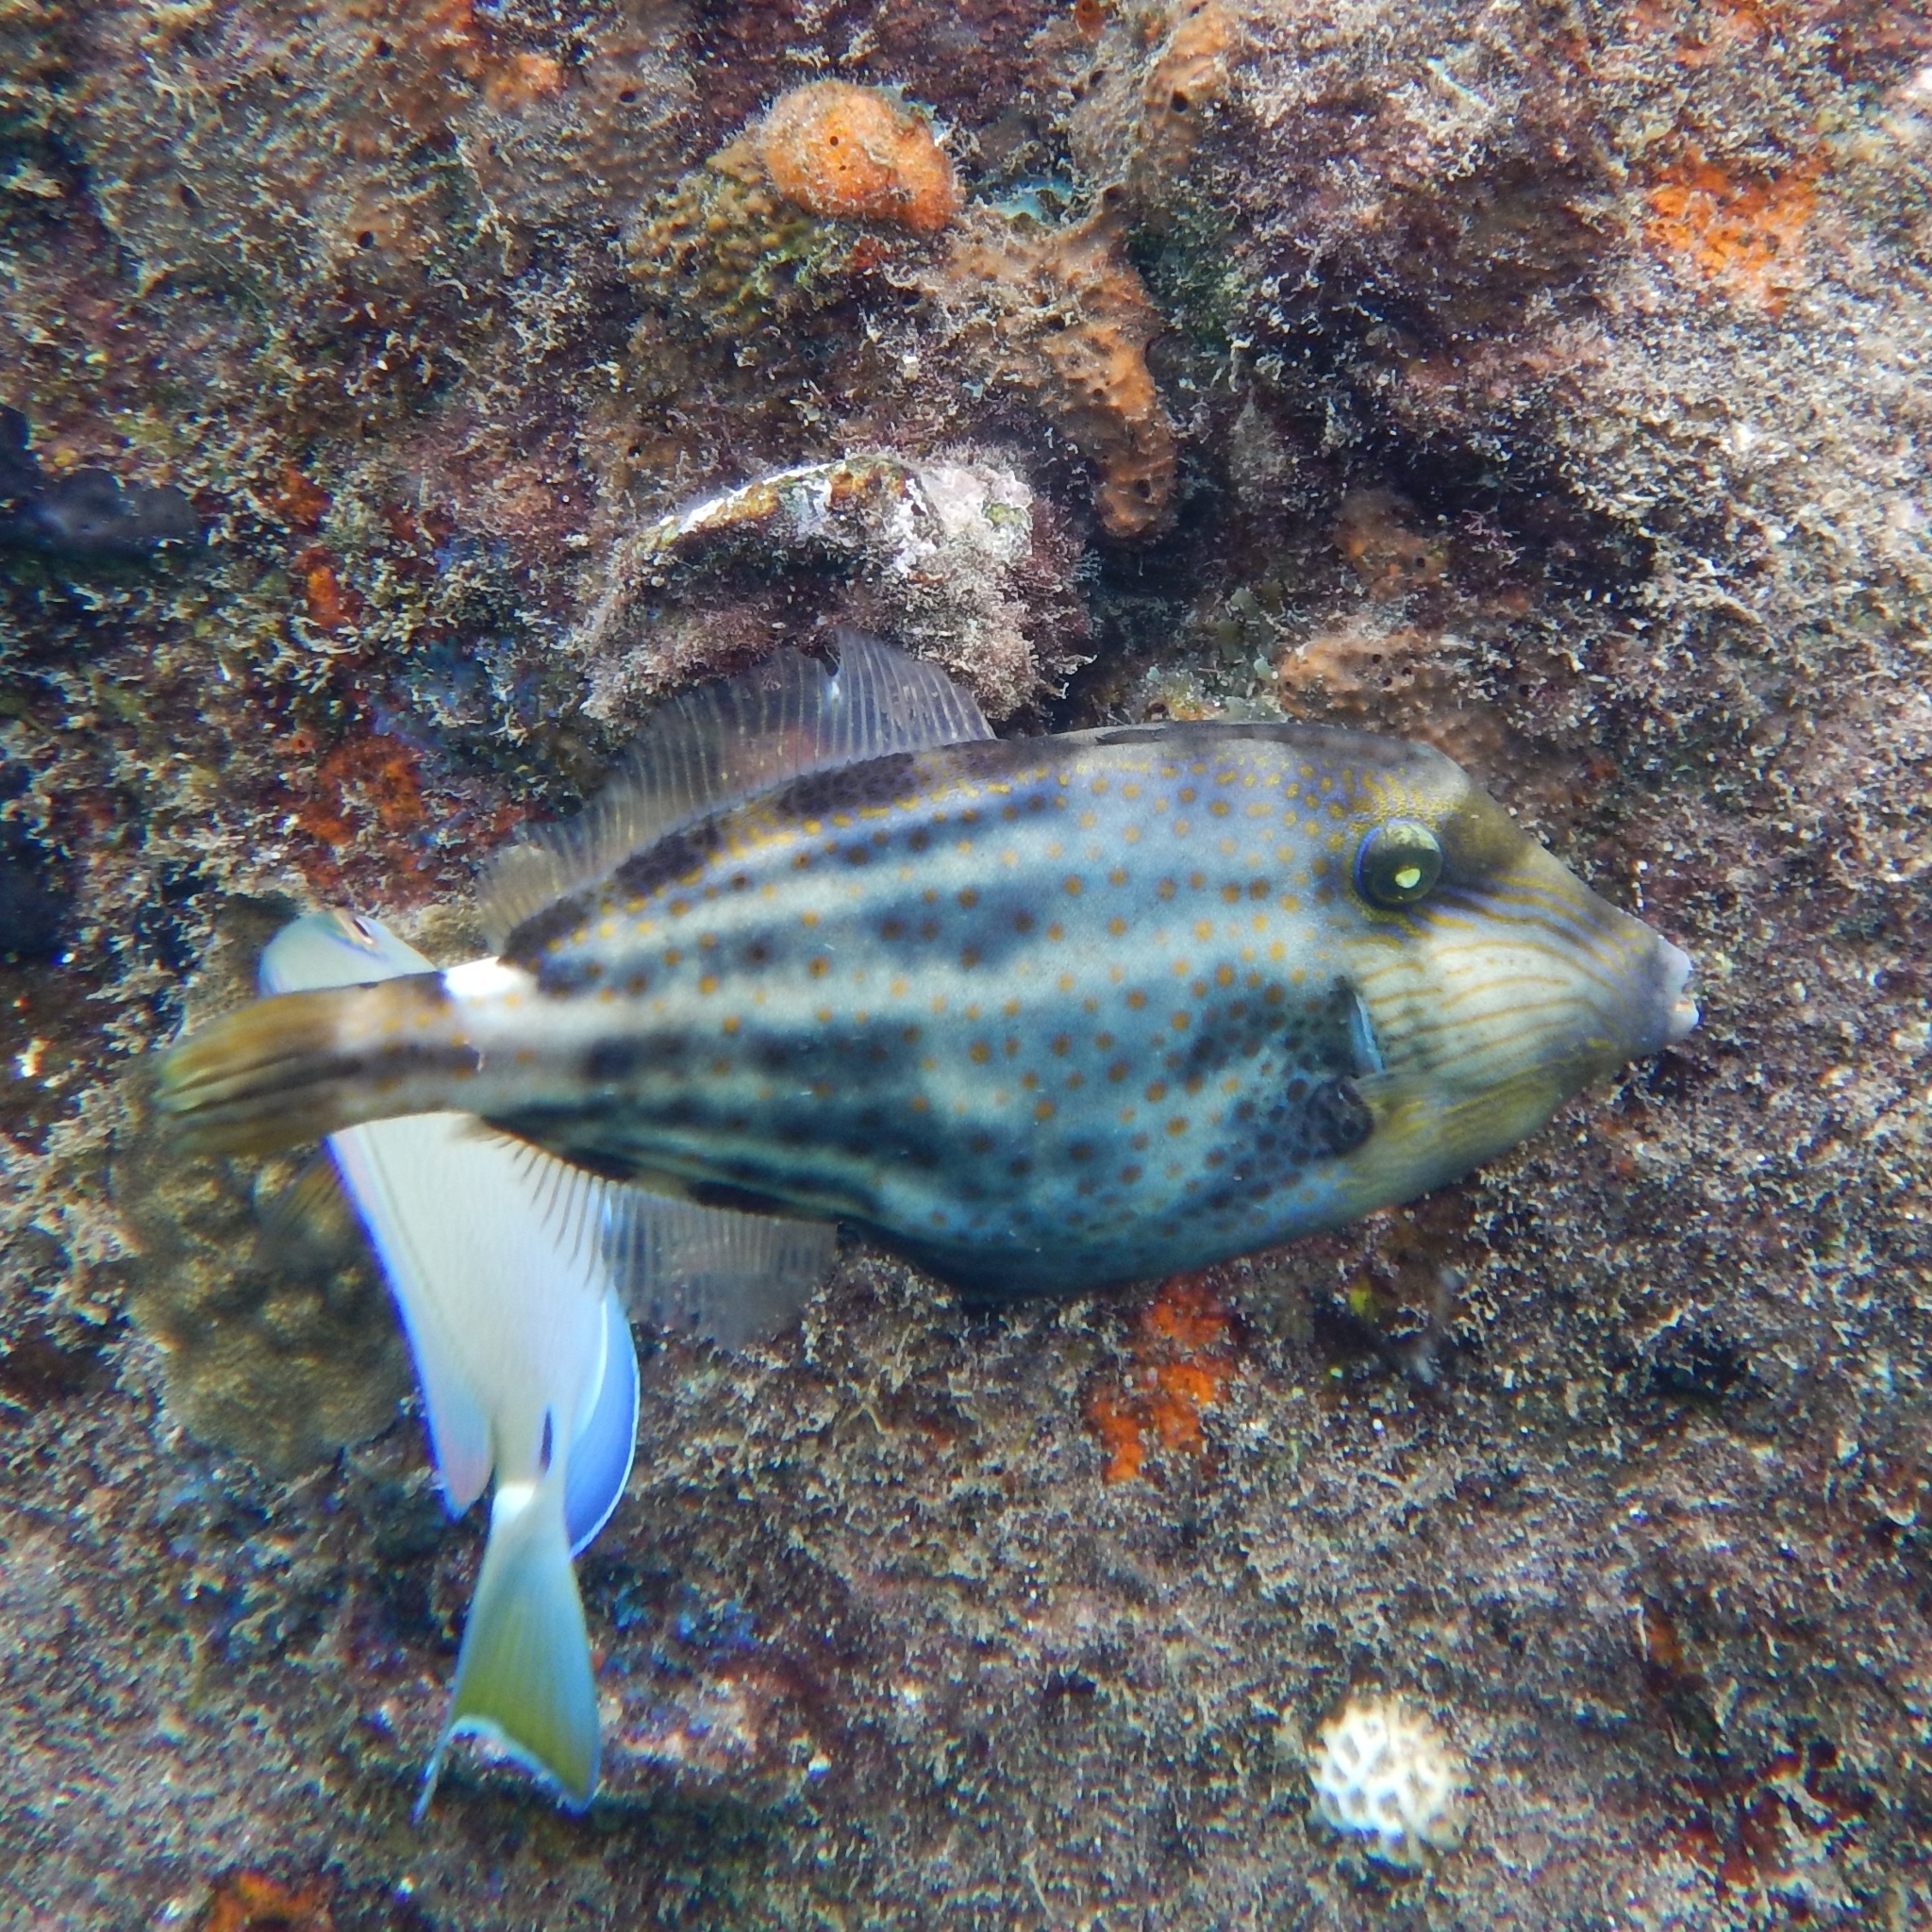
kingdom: Animalia
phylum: Chordata
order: Tetraodontiformes
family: Monacanthidae
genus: Cantherhines
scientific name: Cantherhines pullus
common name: Orangespotted filefish
